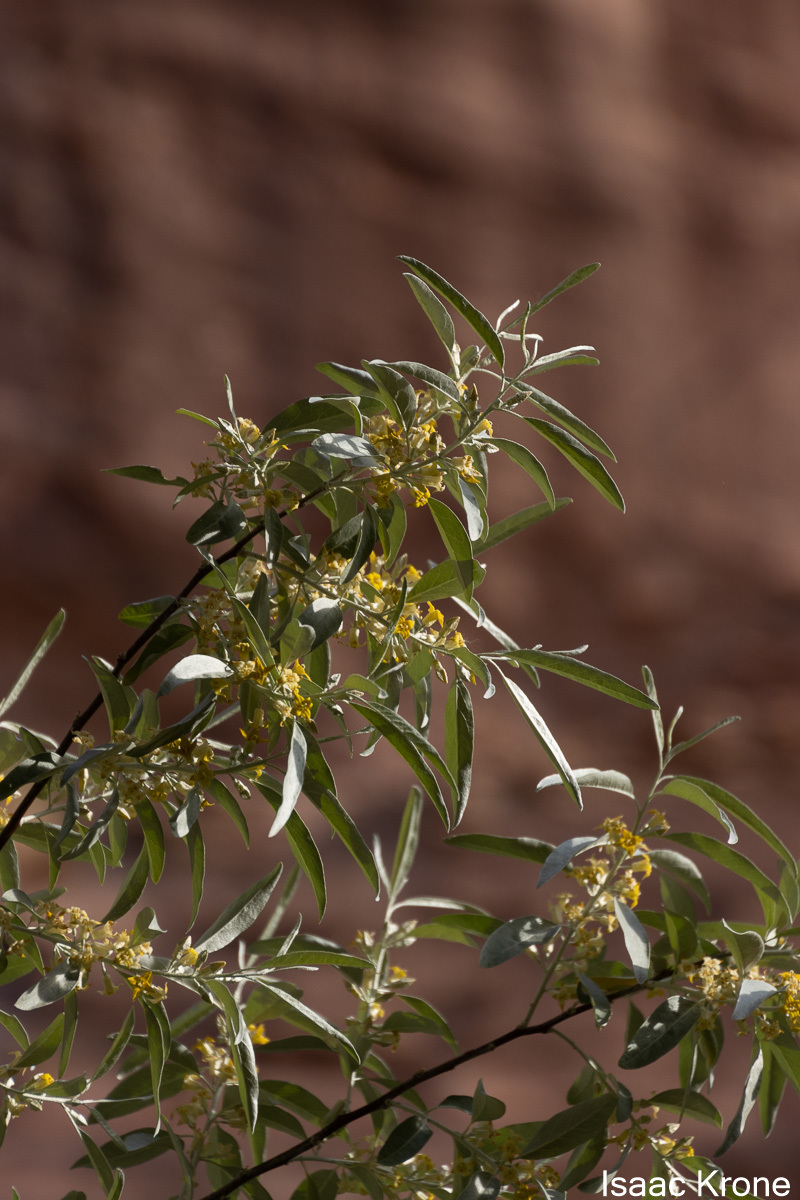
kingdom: Plantae
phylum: Tracheophyta
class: Magnoliopsida
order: Rosales
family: Elaeagnaceae
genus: Elaeagnus
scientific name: Elaeagnus angustifolia
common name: Russian olive
